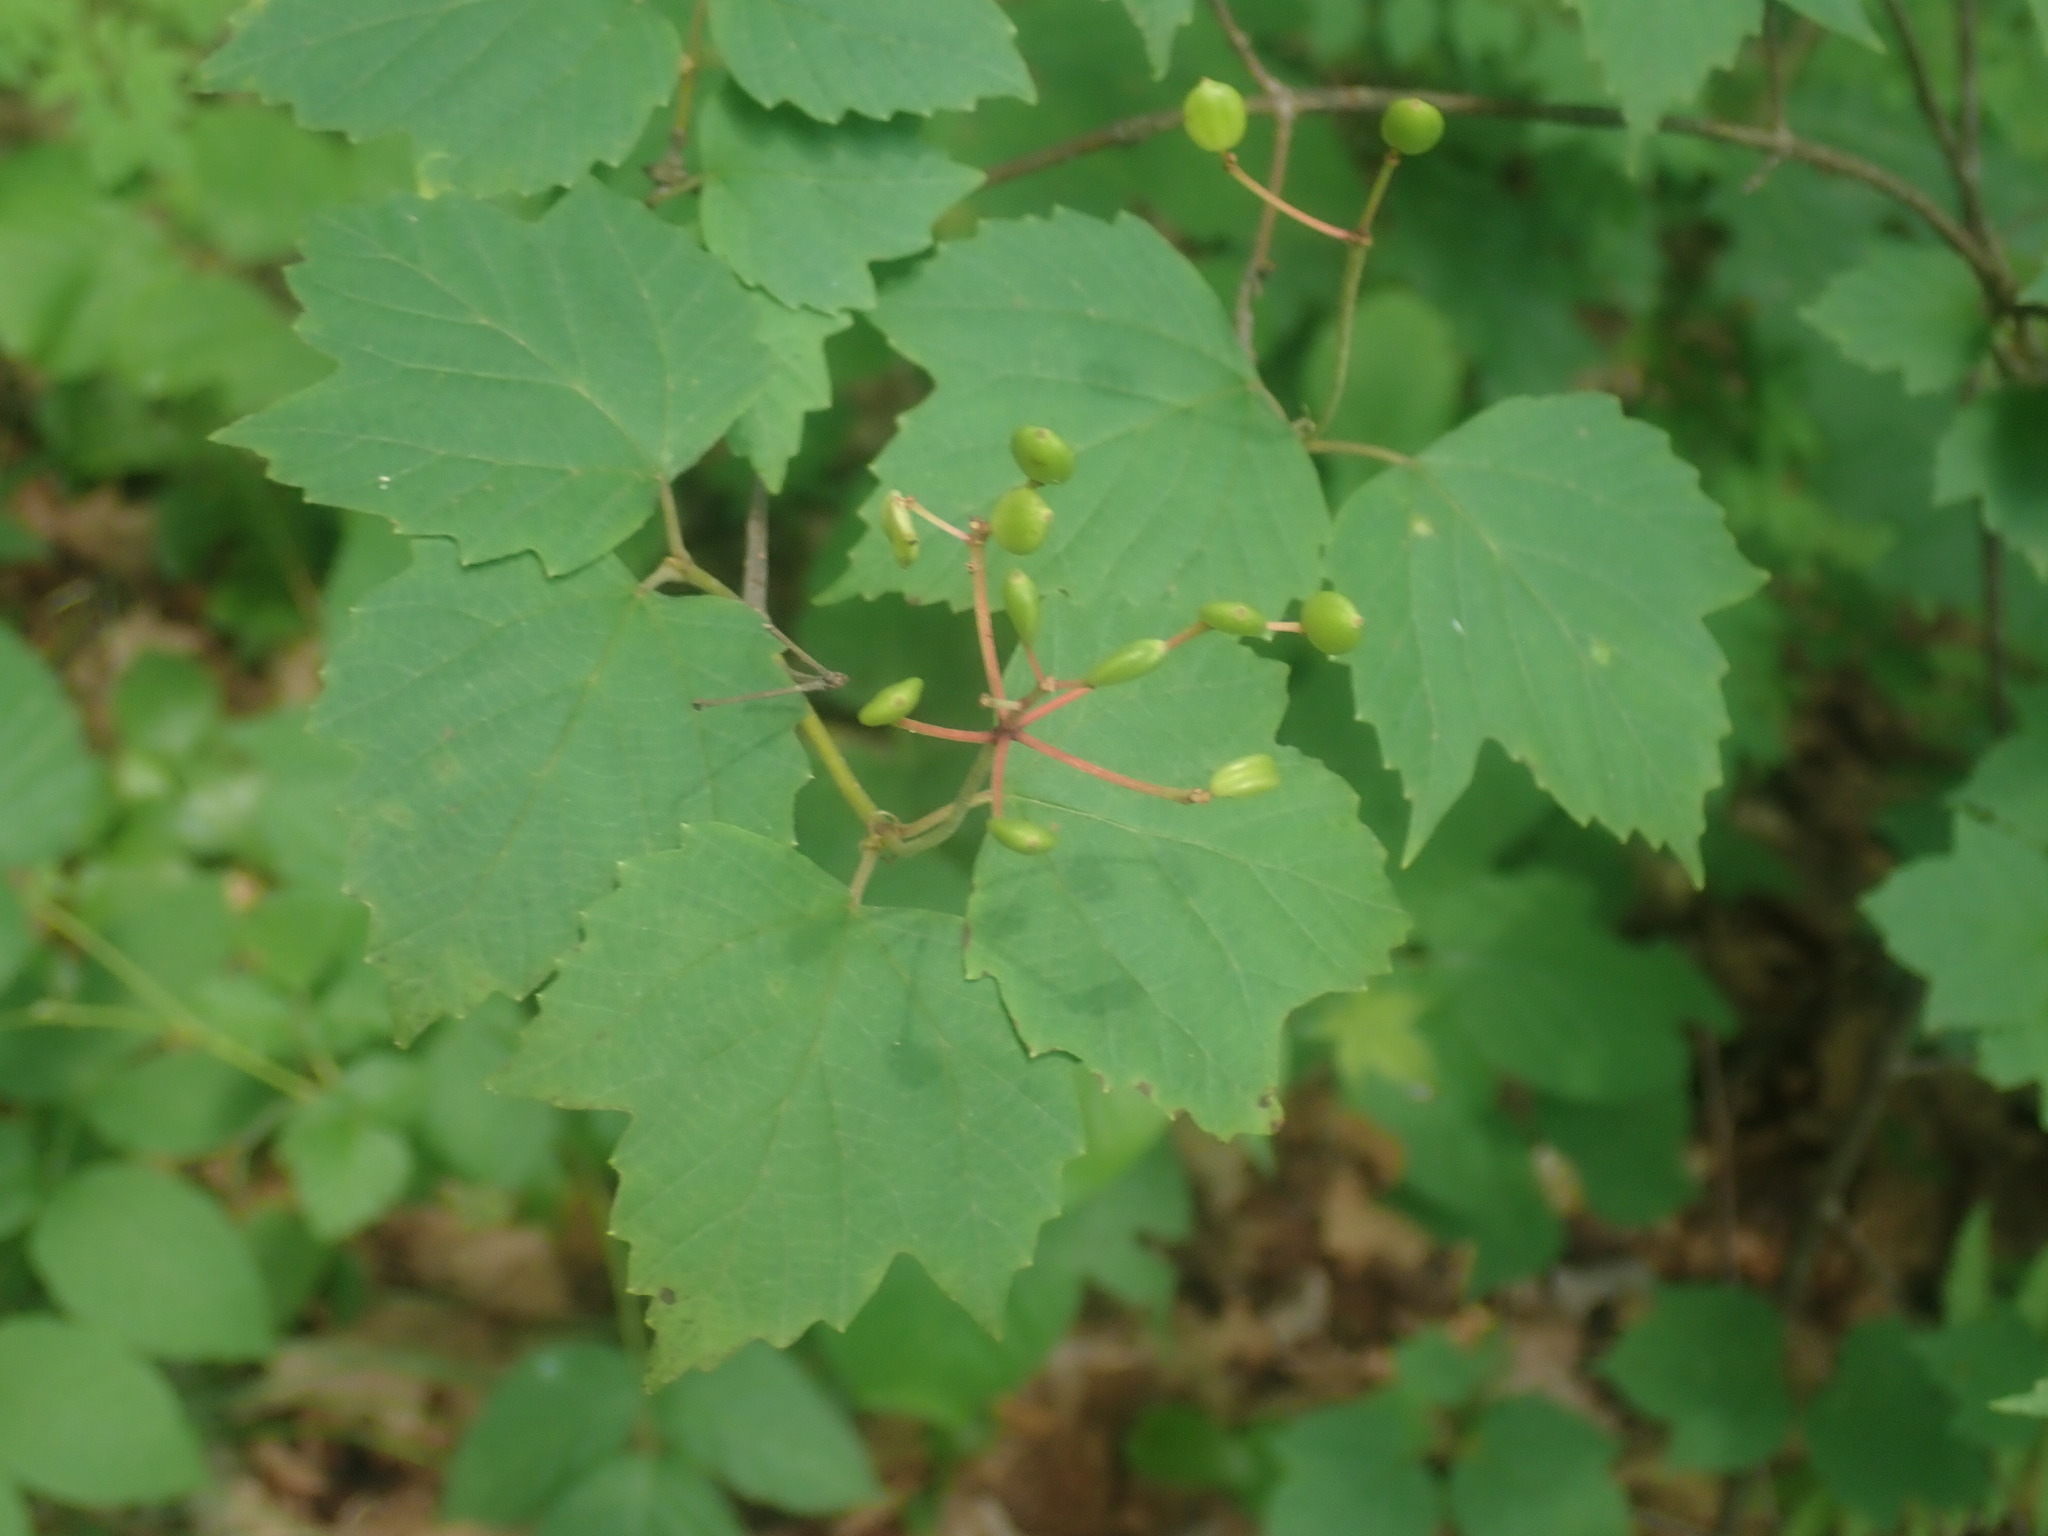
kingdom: Plantae
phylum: Tracheophyta
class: Magnoliopsida
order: Dipsacales
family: Viburnaceae
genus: Viburnum
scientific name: Viburnum acerifolium
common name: Dockmackie
